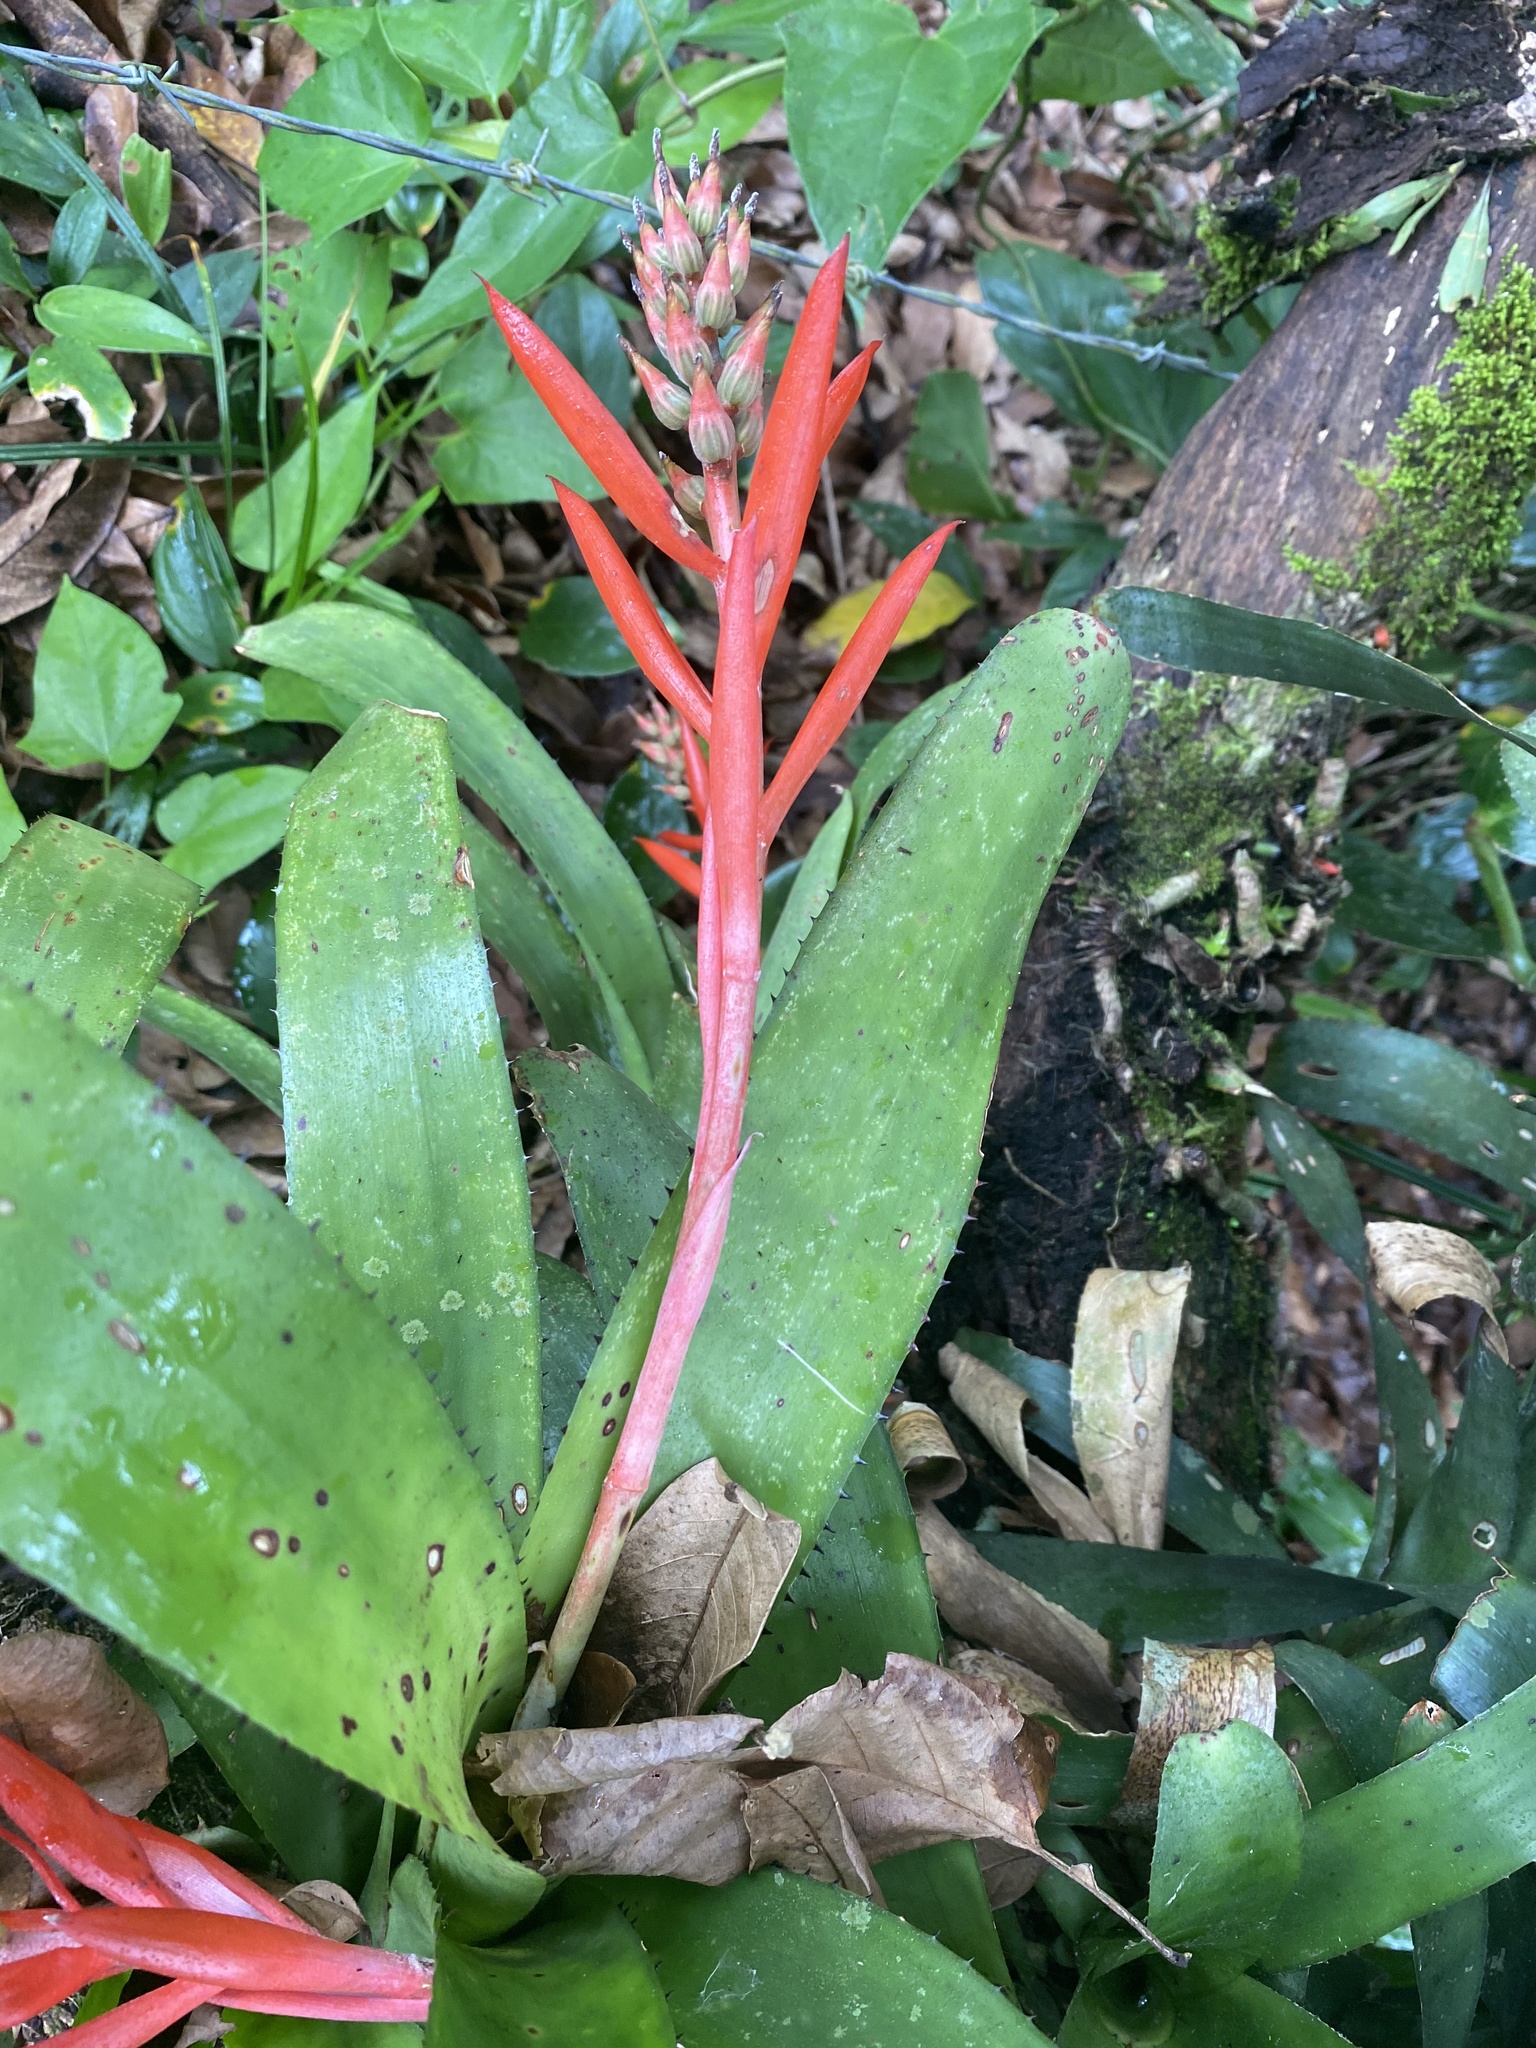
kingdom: Plantae
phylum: Tracheophyta
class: Liliopsida
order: Poales
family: Bromeliaceae
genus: Aechmea
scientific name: Aechmea nudicaulis
